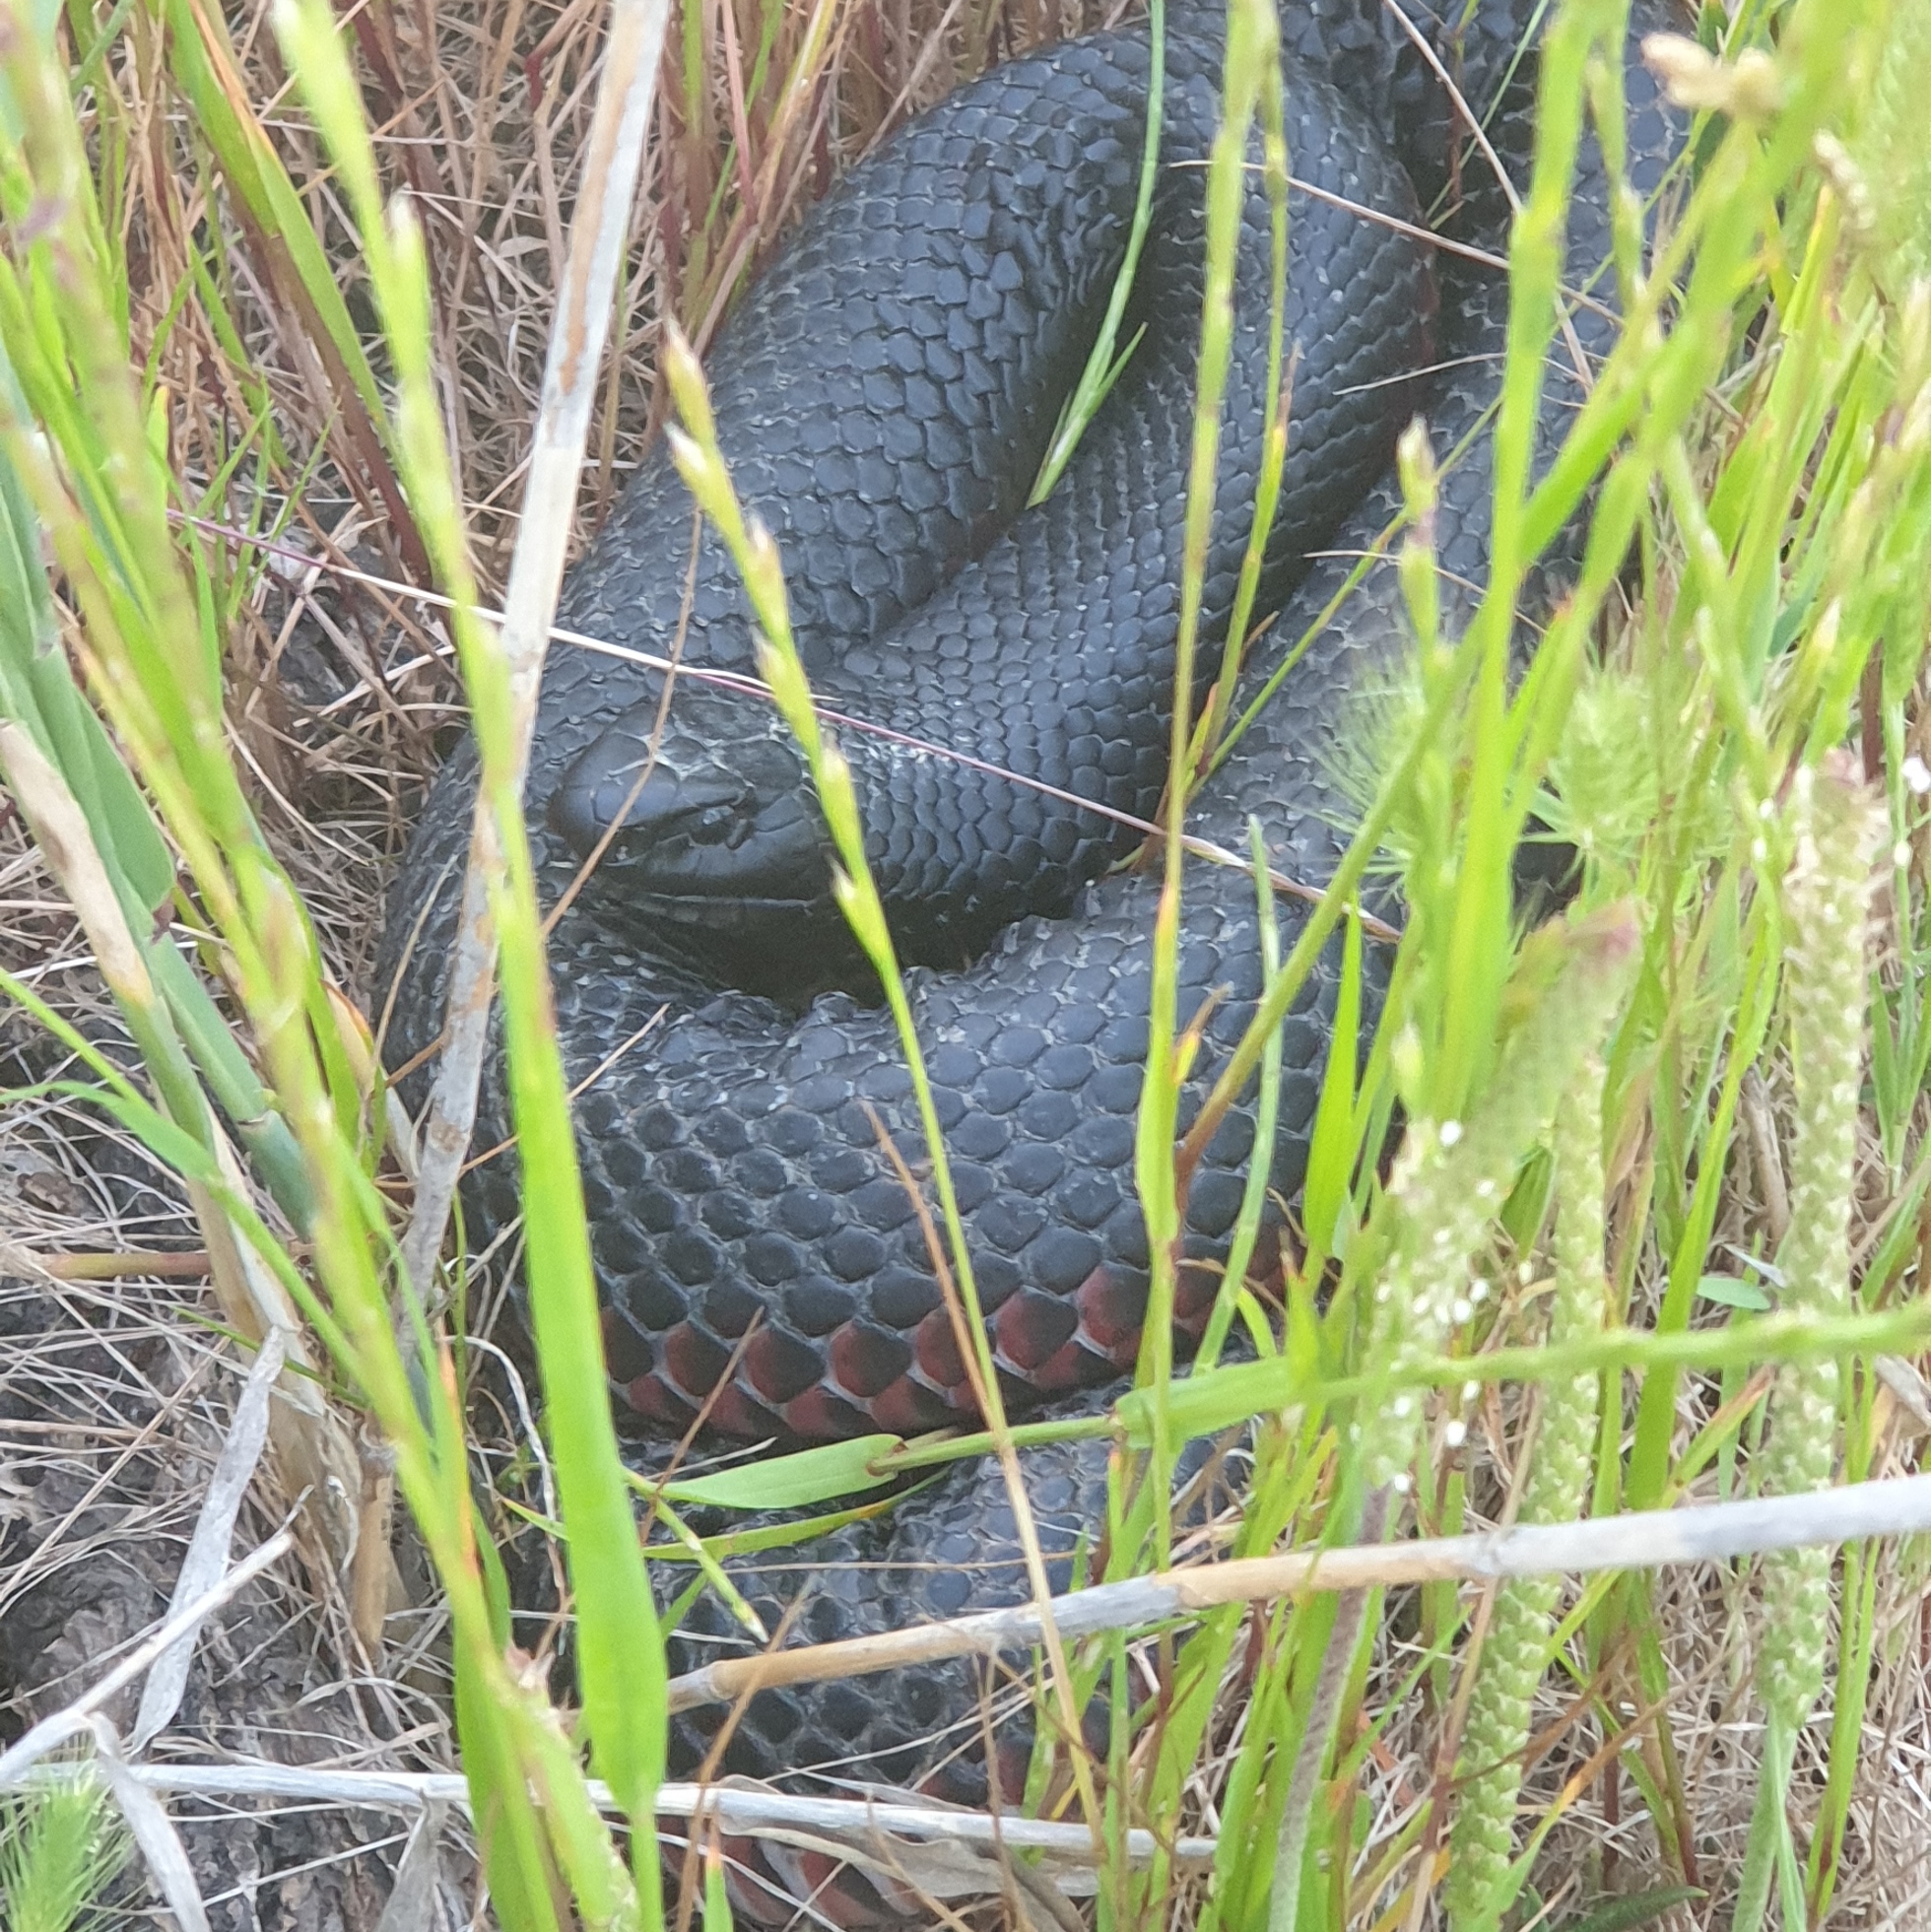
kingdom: Animalia
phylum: Chordata
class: Squamata
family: Elapidae
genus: Pseudechis
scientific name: Pseudechis porphyriacus
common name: Australian black snake
